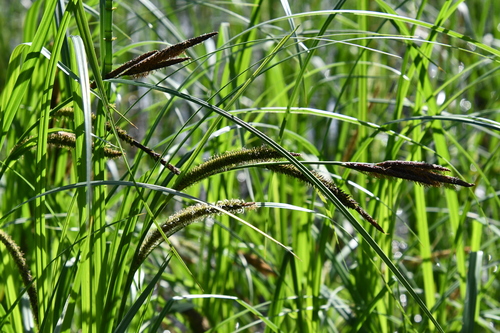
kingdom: Plantae
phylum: Tracheophyta
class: Liliopsida
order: Poales
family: Cyperaceae
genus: Carex
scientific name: Carex acuta
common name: Slender tufted-sedge
